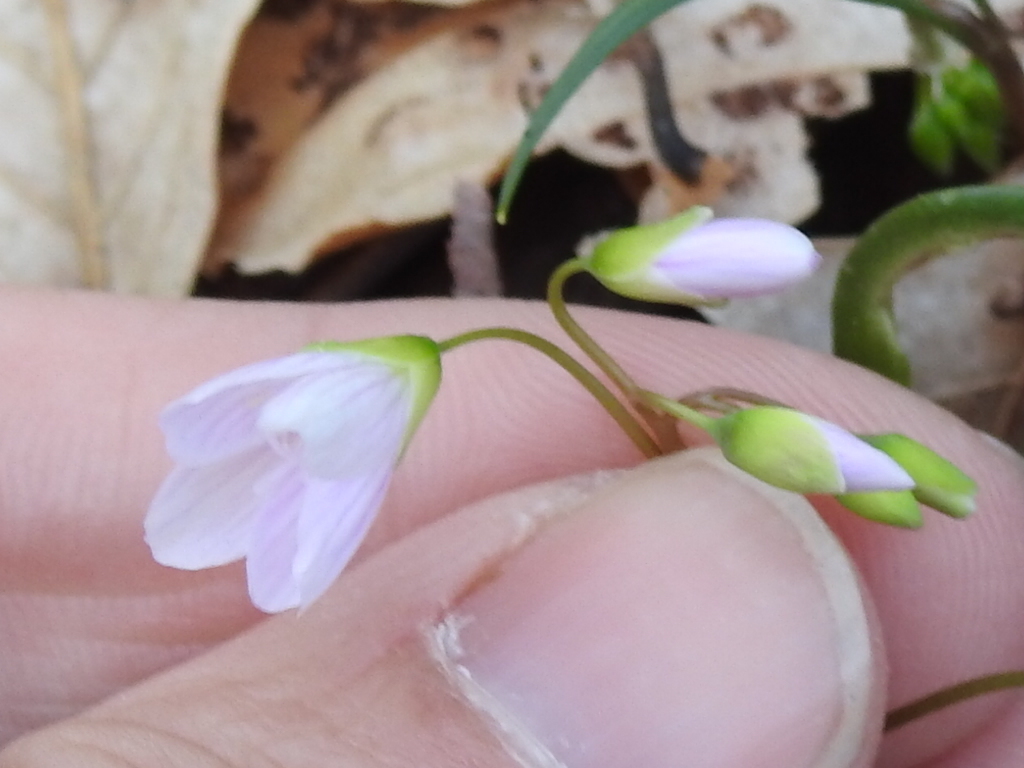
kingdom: Plantae
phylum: Tracheophyta
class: Magnoliopsida
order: Caryophyllales
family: Montiaceae
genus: Claytonia
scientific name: Claytonia virginica
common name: Virginia springbeauty
